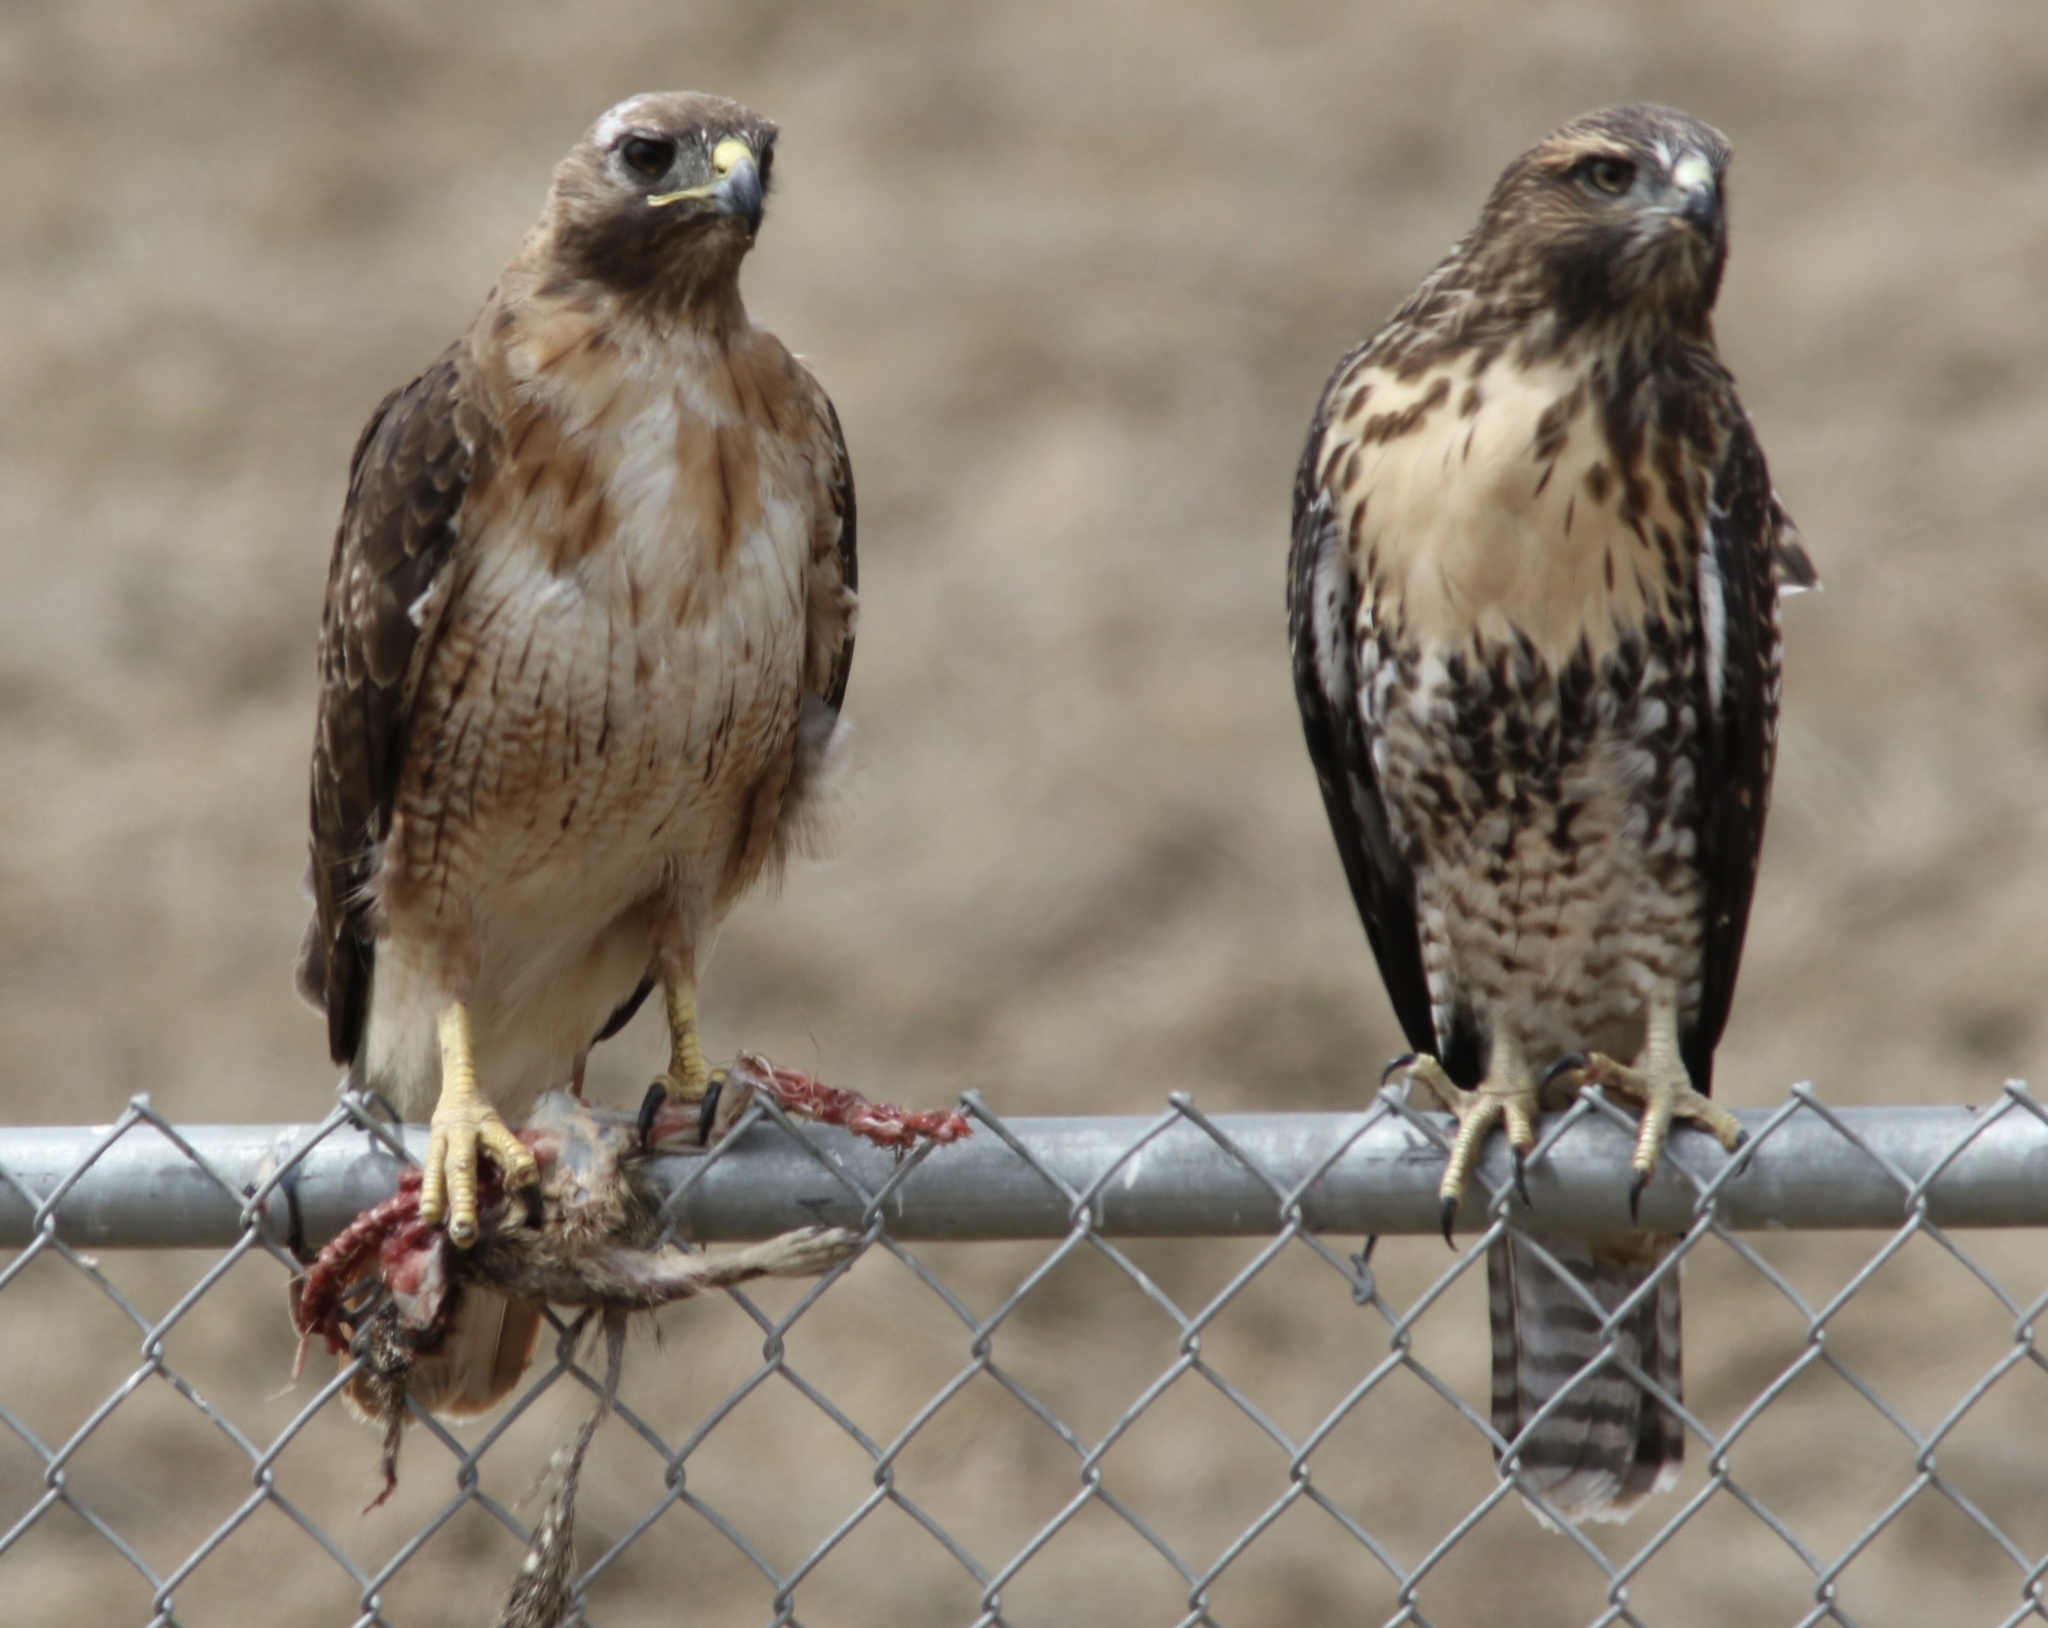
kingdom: Animalia
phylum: Chordata
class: Aves
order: Accipitriformes
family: Accipitridae
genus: Buteo
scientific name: Buteo jamaicensis
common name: Red-tailed hawk
